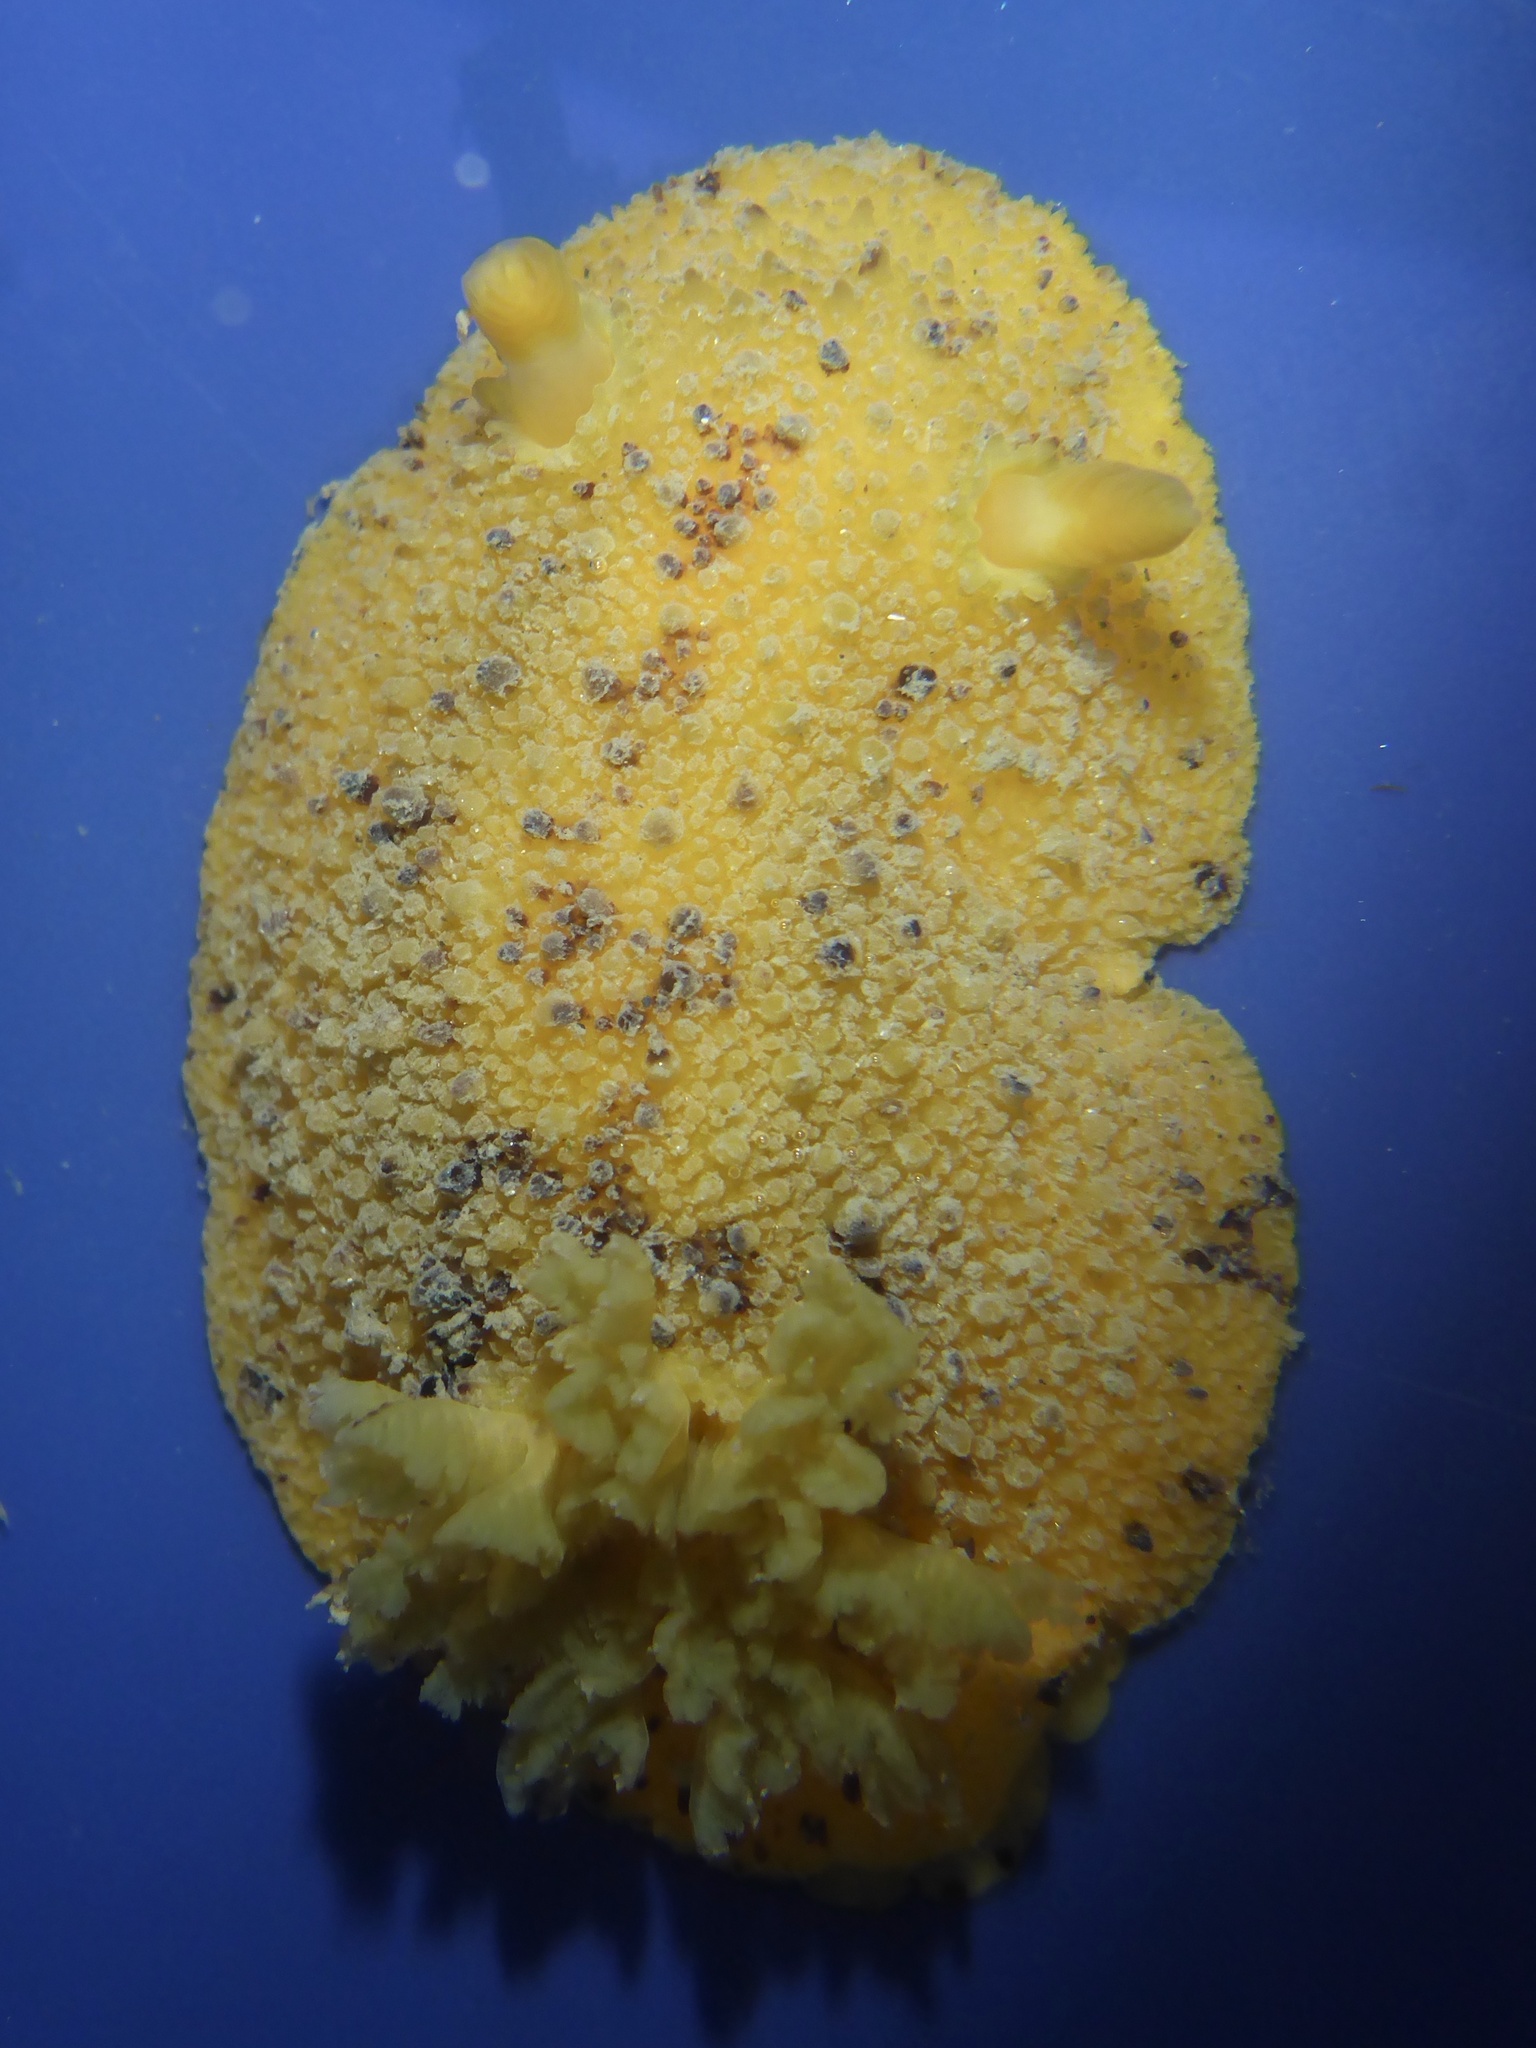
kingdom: Animalia
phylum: Mollusca
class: Gastropoda
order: Nudibranchia
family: Dorididae
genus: Doris
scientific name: Doris montereyensis
